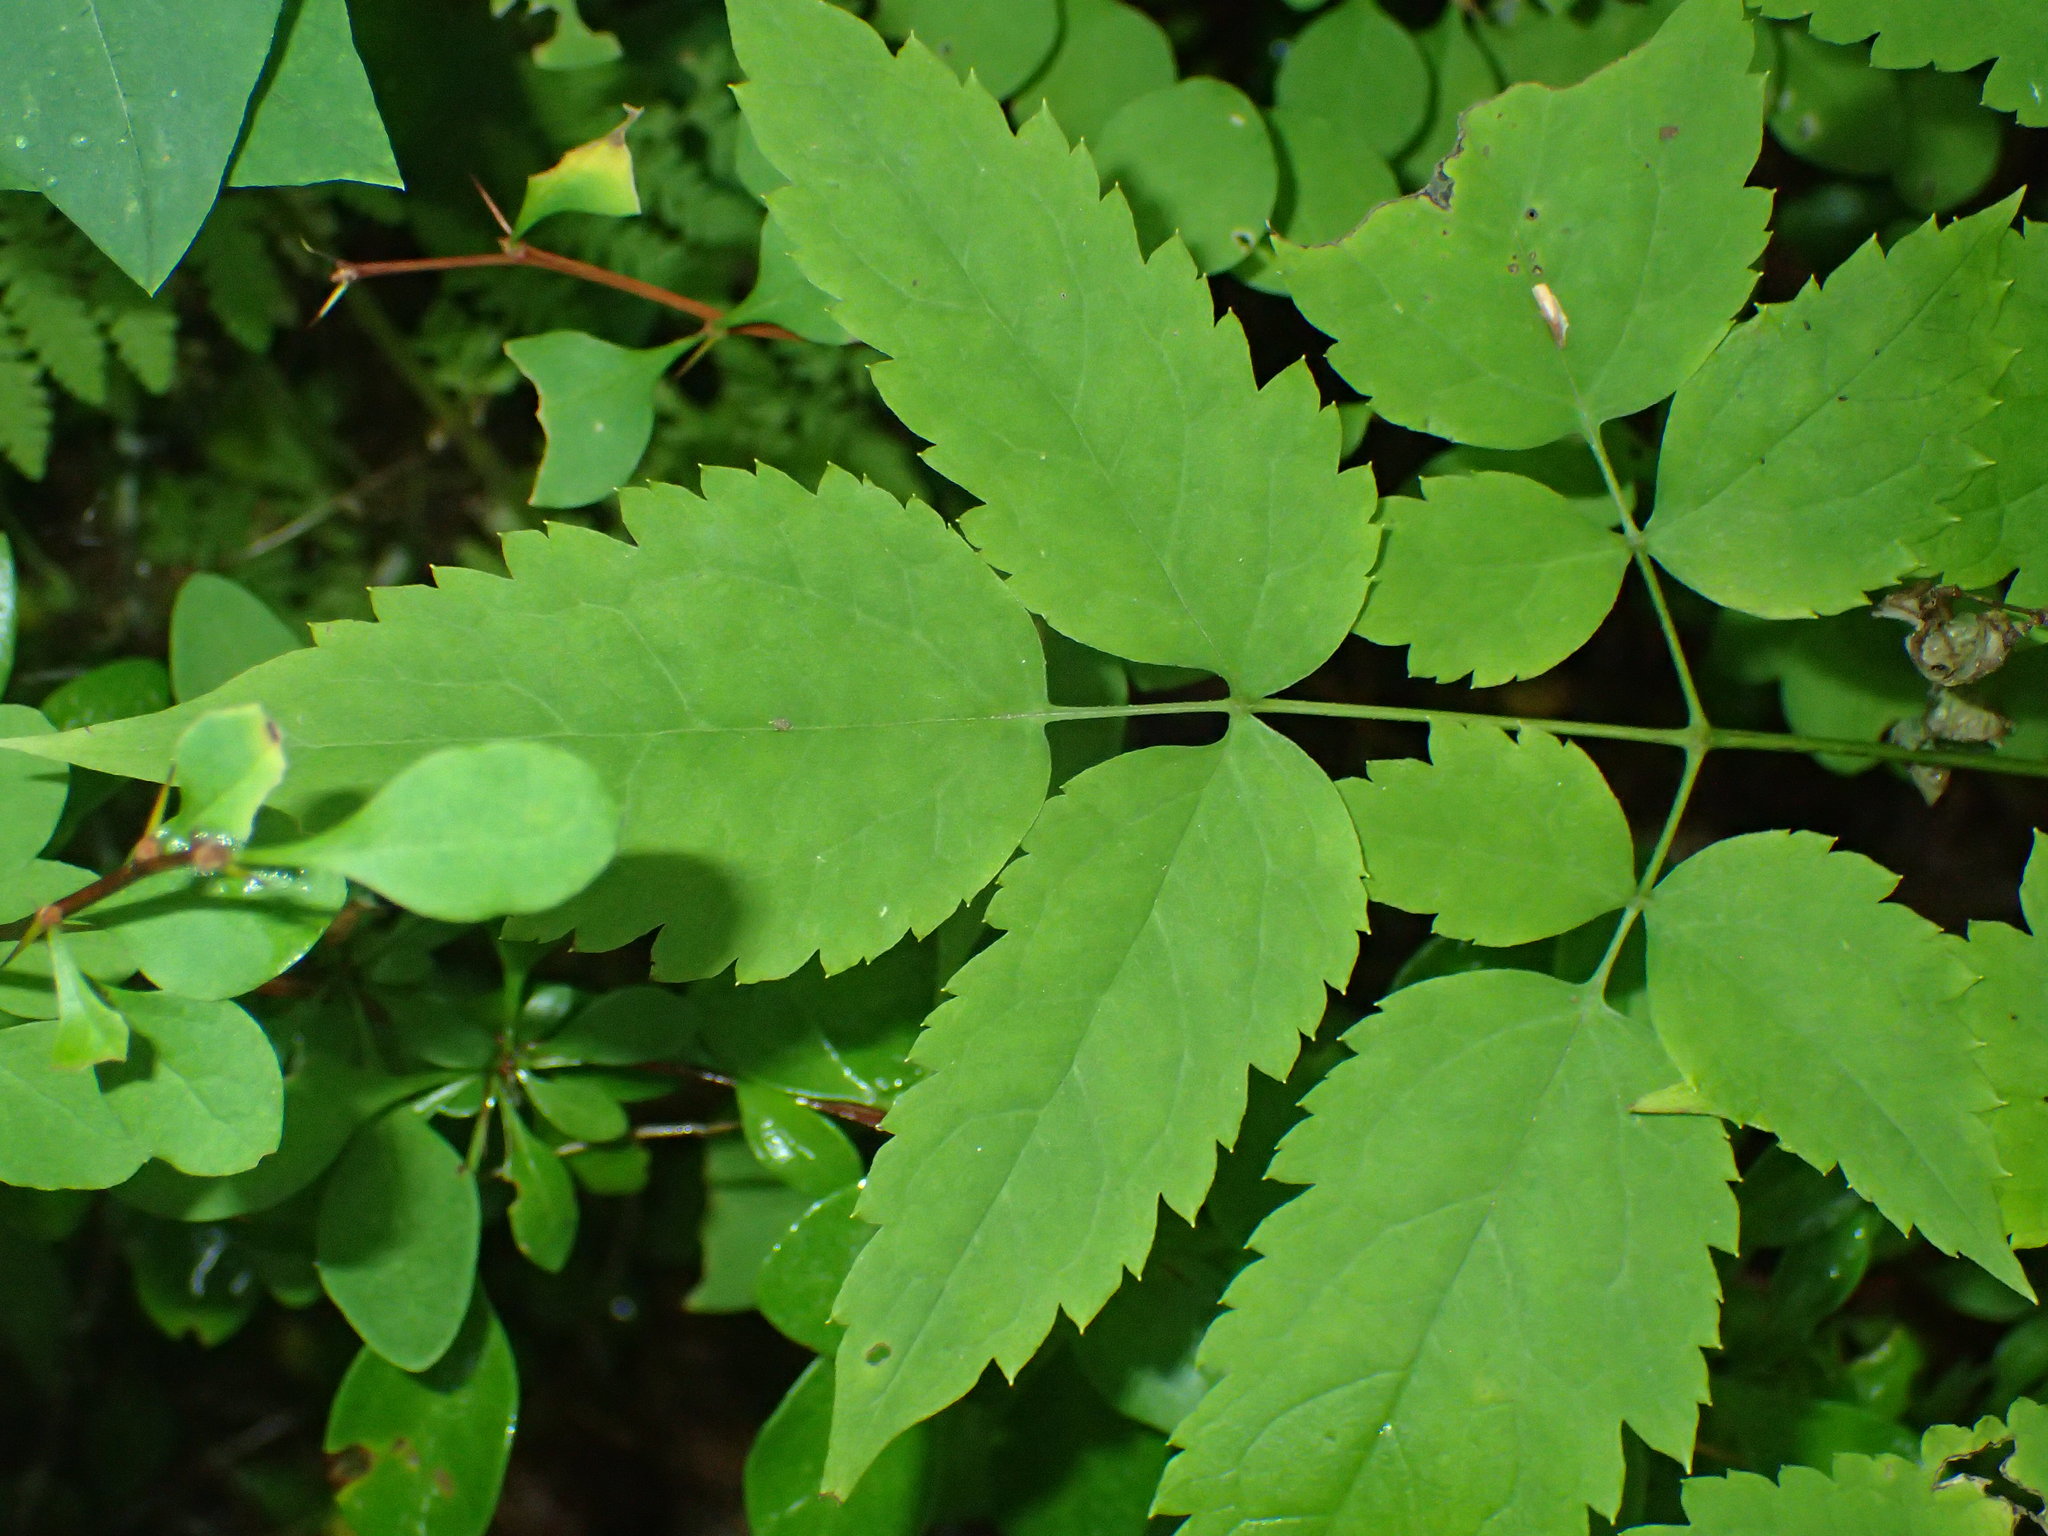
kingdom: Plantae
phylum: Tracheophyta
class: Magnoliopsida
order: Ranunculales
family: Ranunculaceae
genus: Actaea
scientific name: Actaea pachypoda
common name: Doll's-eyes
